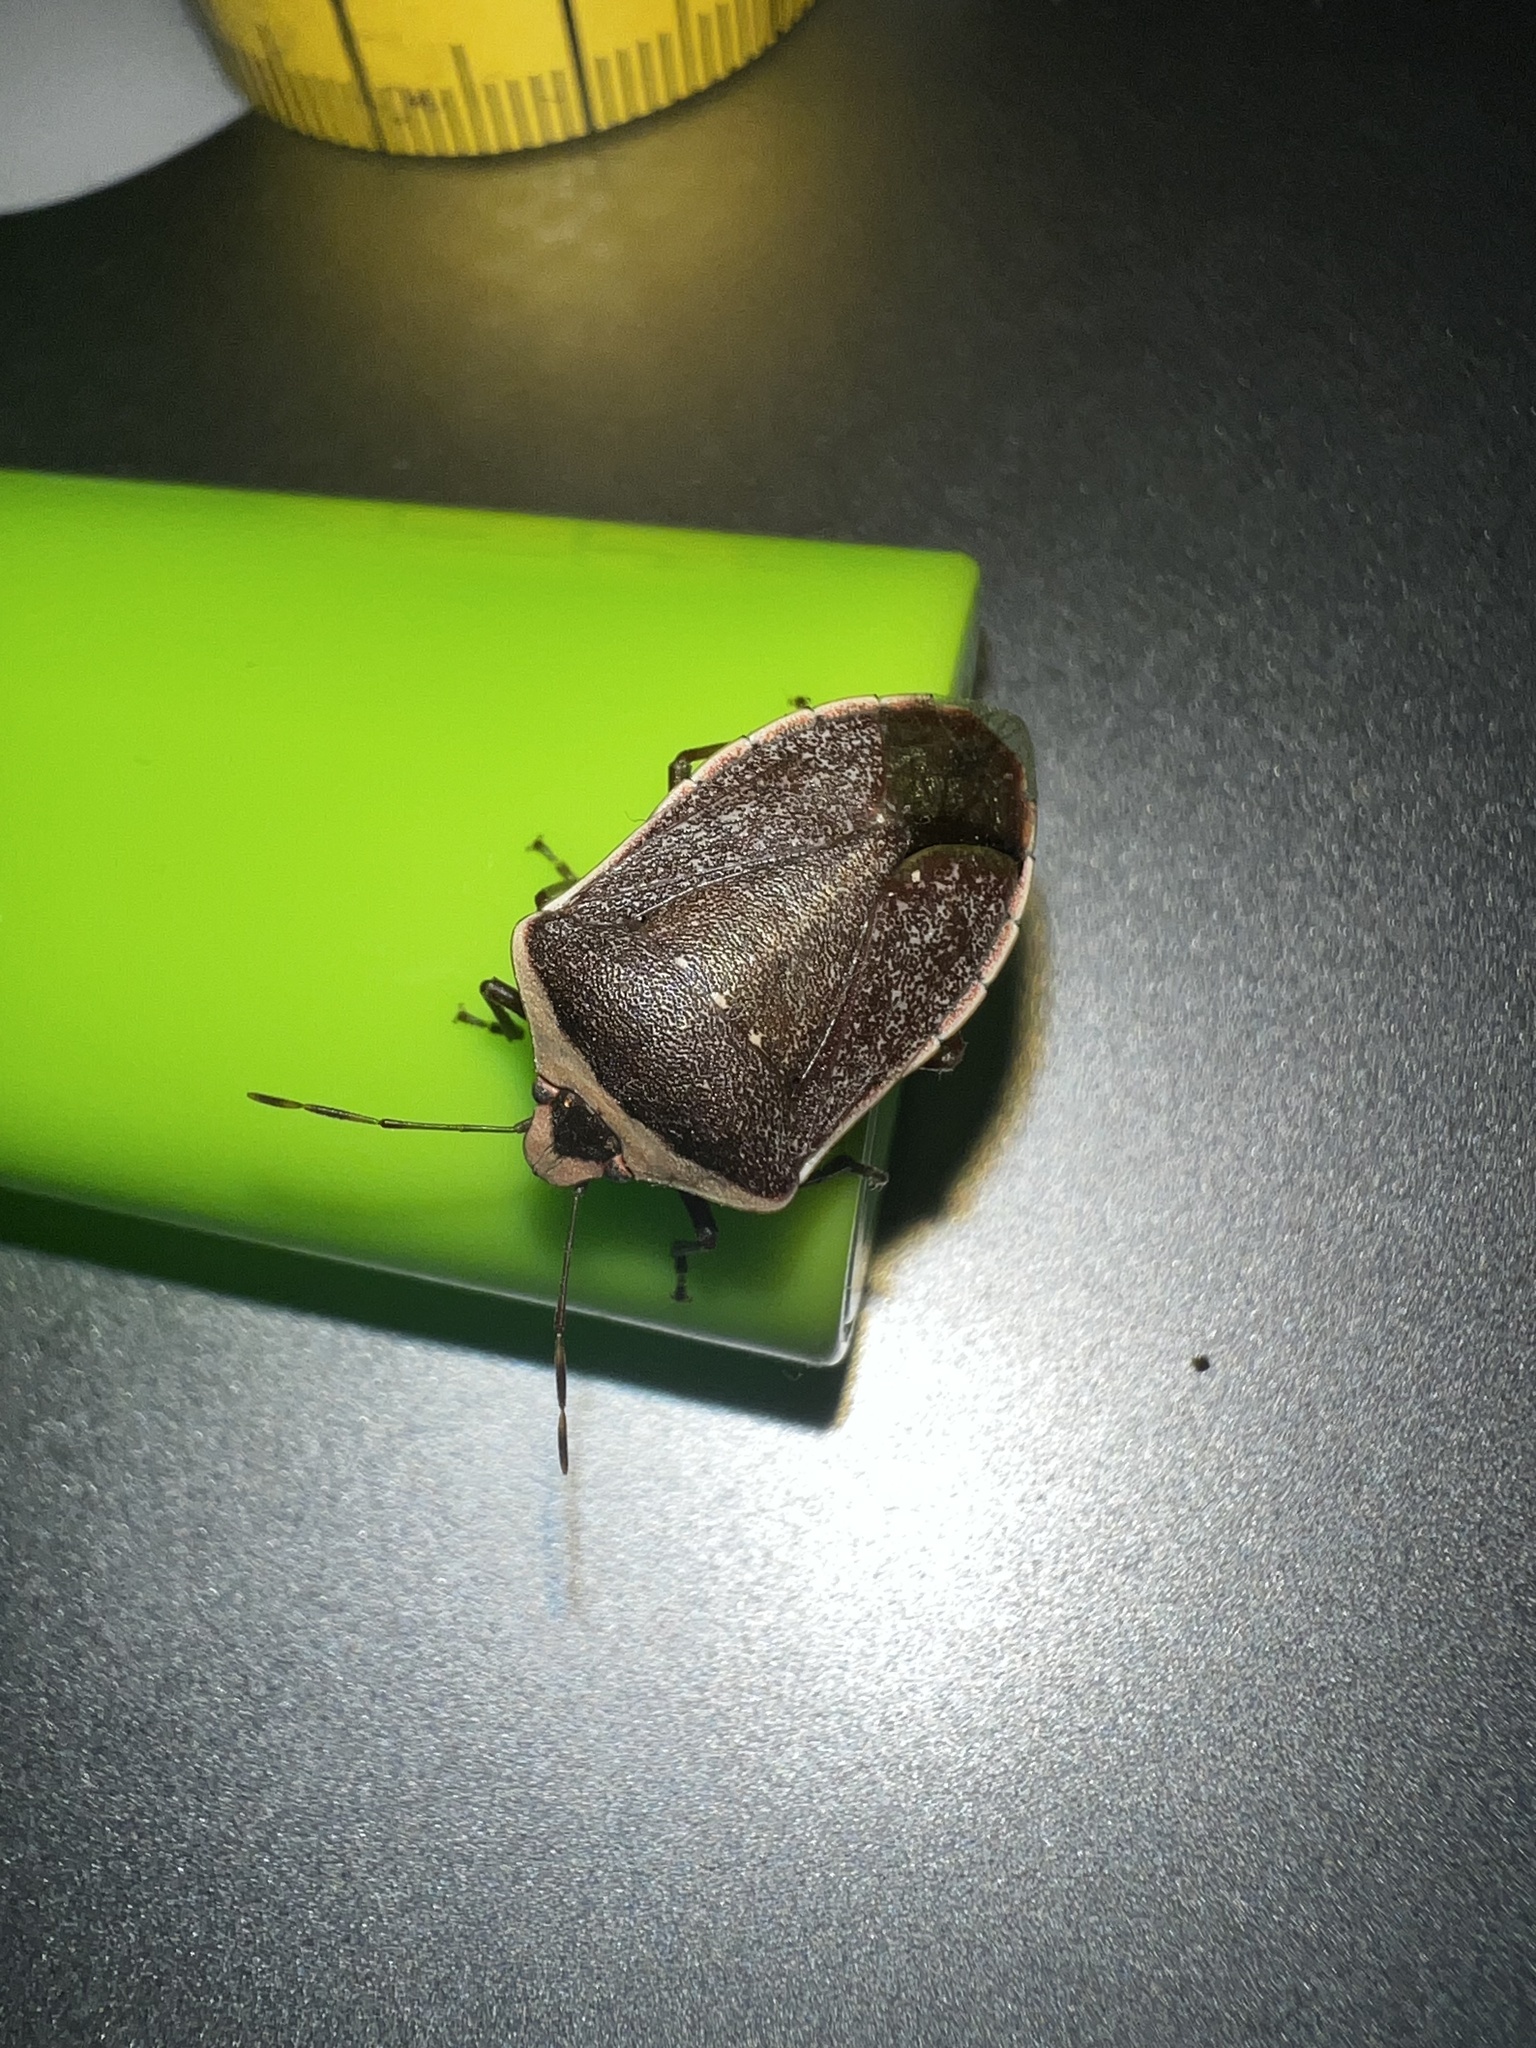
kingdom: Animalia
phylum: Arthropoda
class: Insecta
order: Hemiptera
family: Pentatomidae
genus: Nezara
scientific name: Nezara viridula
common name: Southern green stink bug
